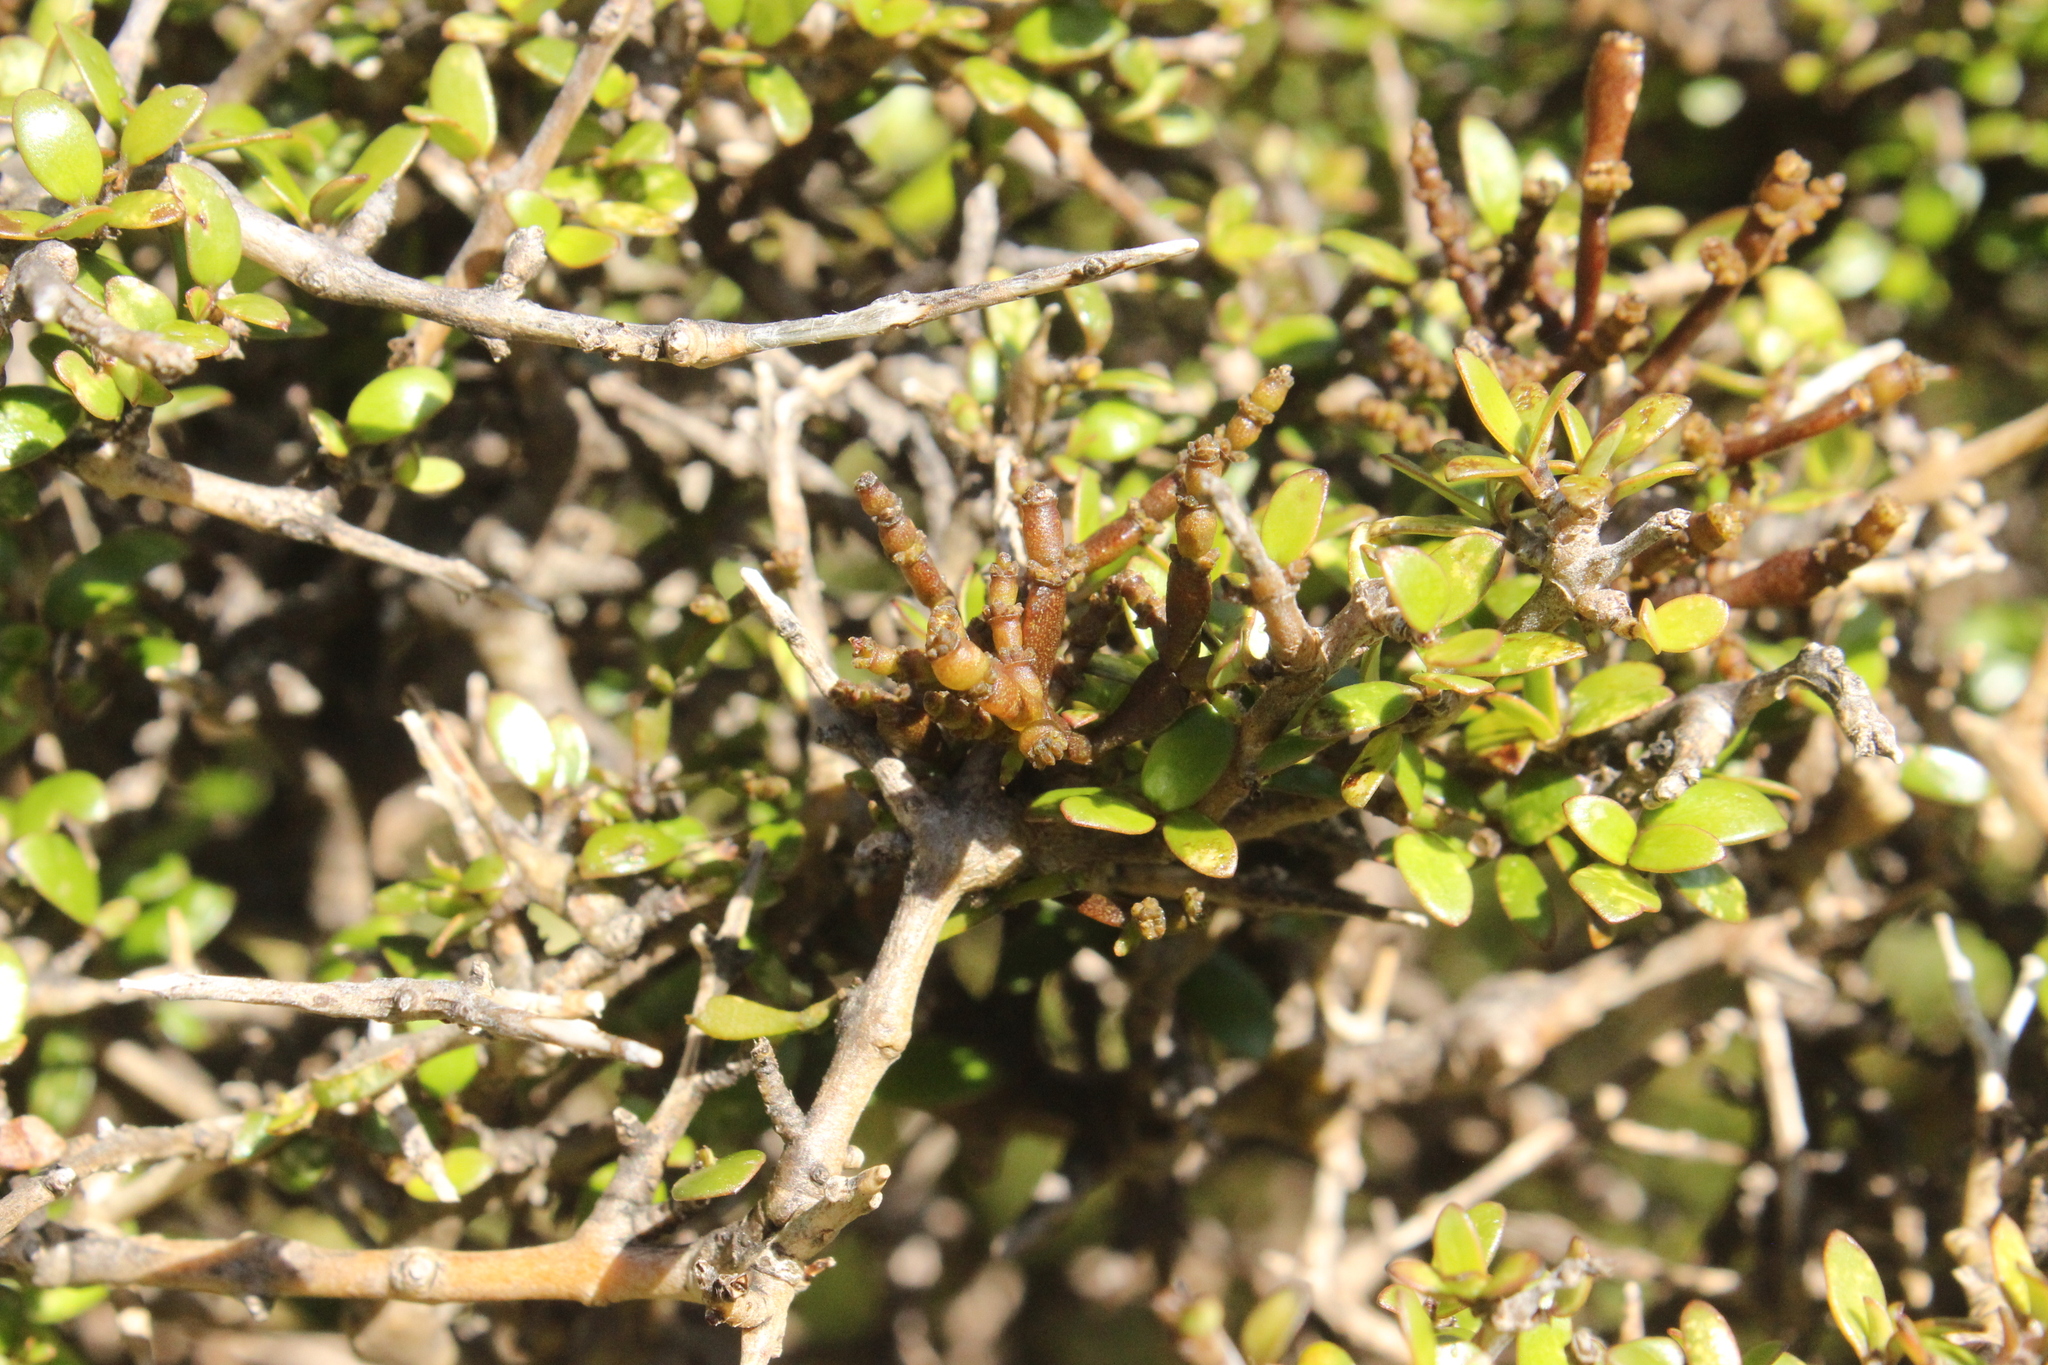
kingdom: Plantae
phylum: Tracheophyta
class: Magnoliopsida
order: Santalales
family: Viscaceae
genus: Korthalsella
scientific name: Korthalsella clavata
